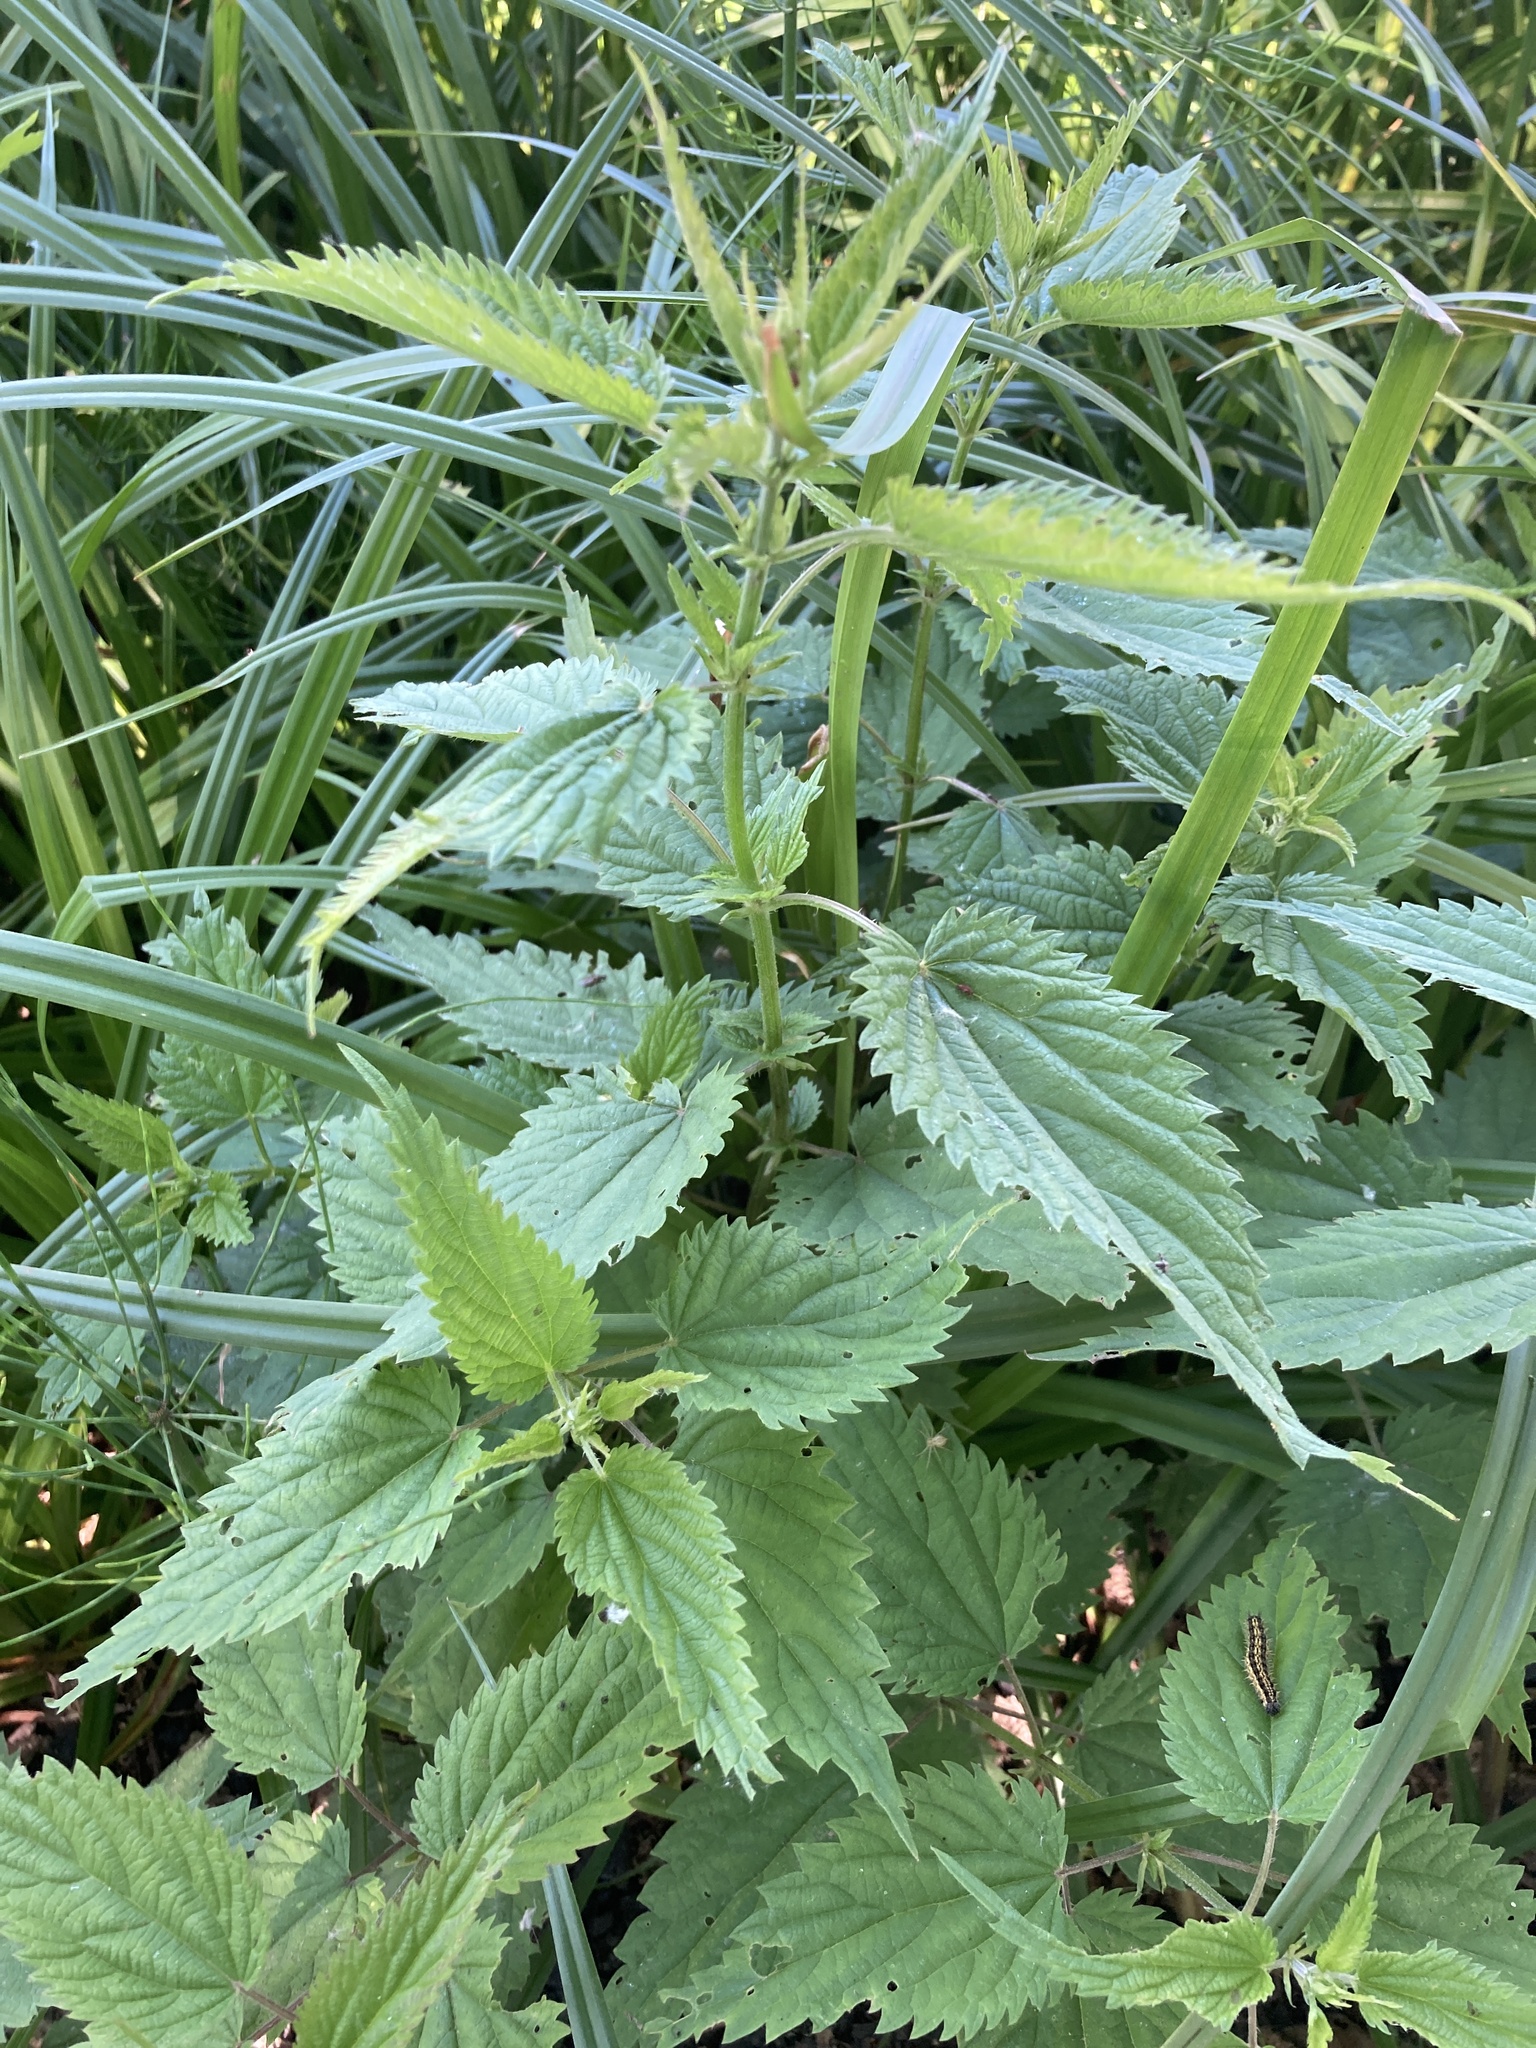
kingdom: Plantae
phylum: Tracheophyta
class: Magnoliopsida
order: Rosales
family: Urticaceae
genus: Urtica
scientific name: Urtica dioica
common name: Common nettle
